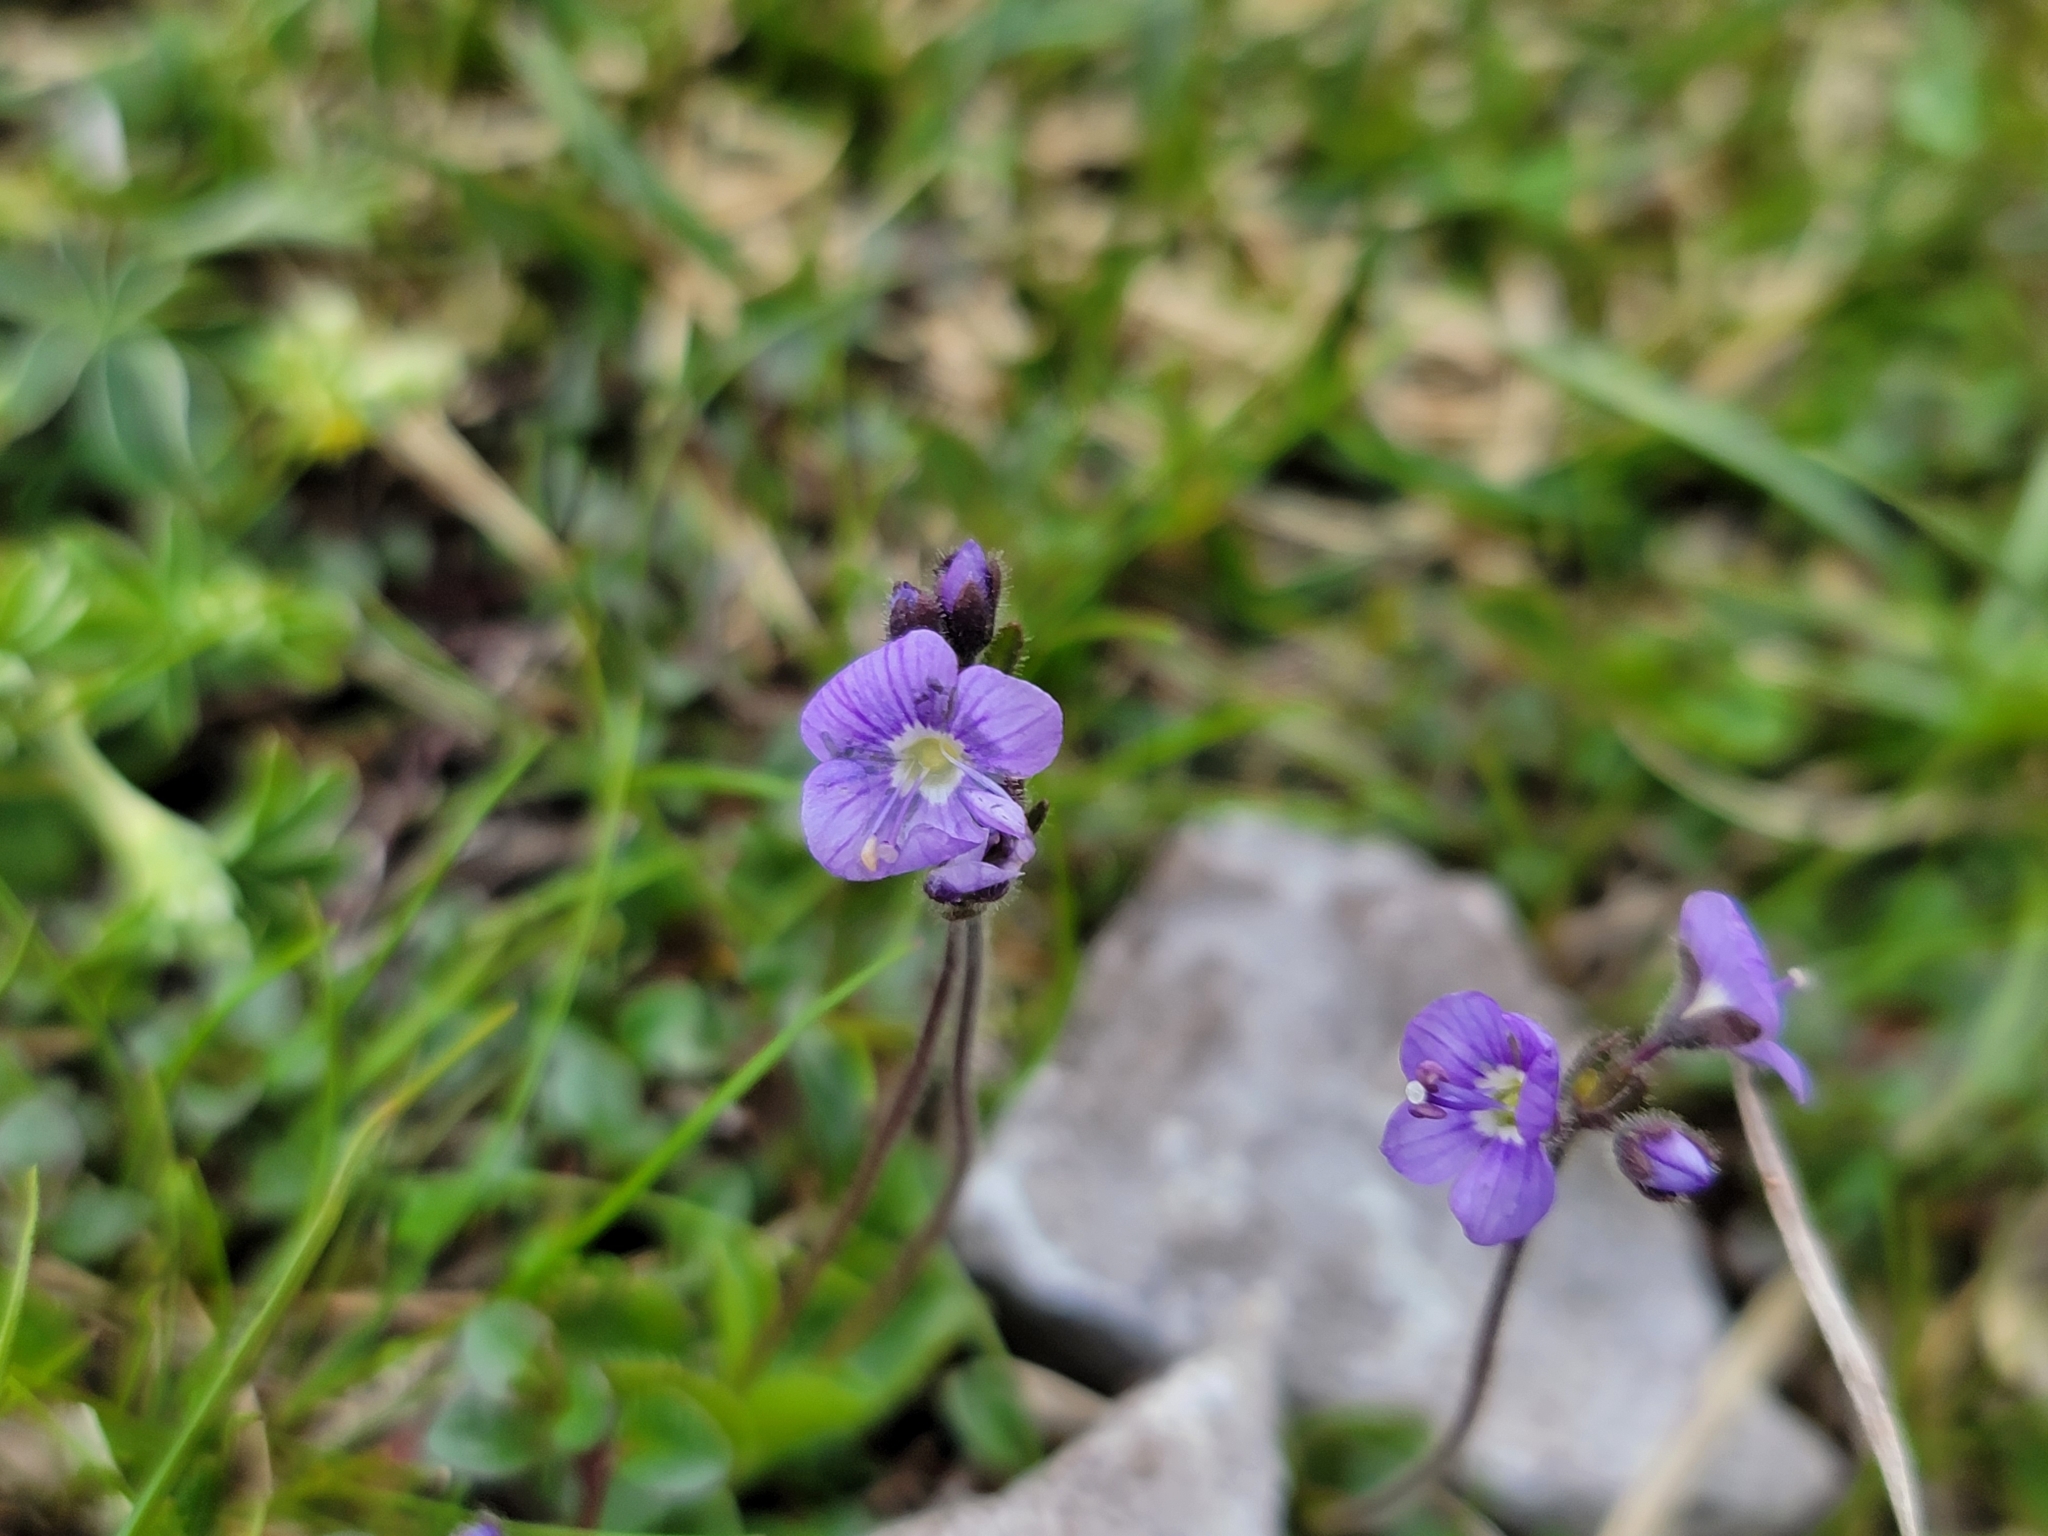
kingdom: Plantae
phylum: Tracheophyta
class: Magnoliopsida
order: Lamiales
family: Plantaginaceae
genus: Veronica
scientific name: Veronica aphylla
